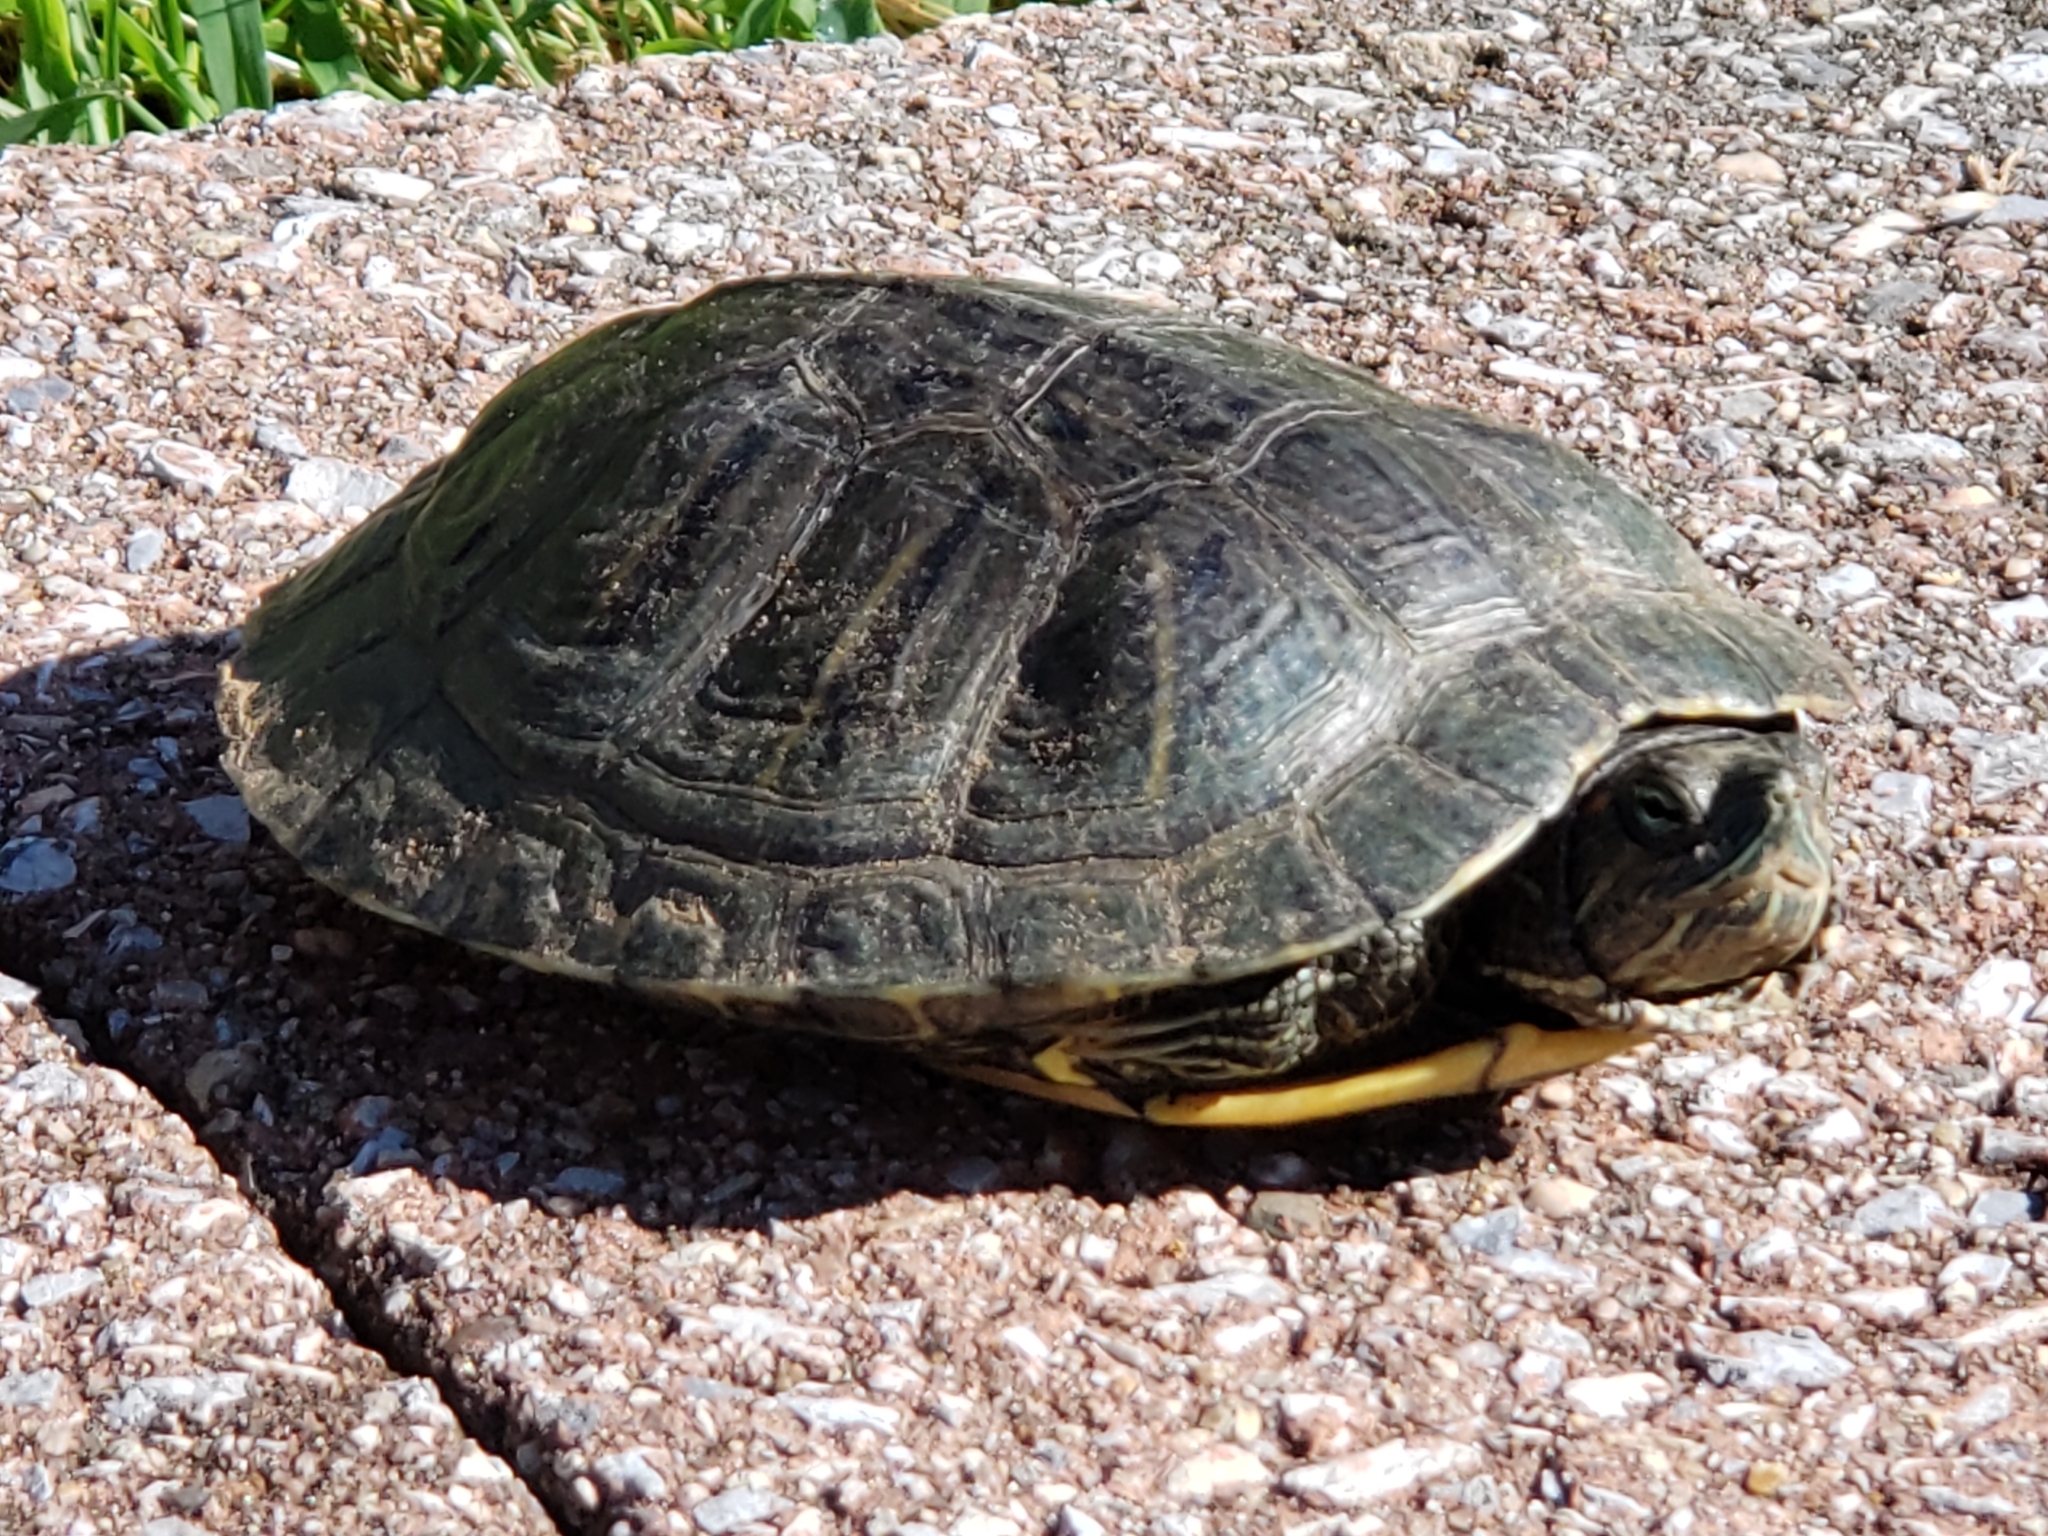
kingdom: Animalia
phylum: Chordata
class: Testudines
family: Emydidae
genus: Trachemys
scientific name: Trachemys scripta
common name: Slider
